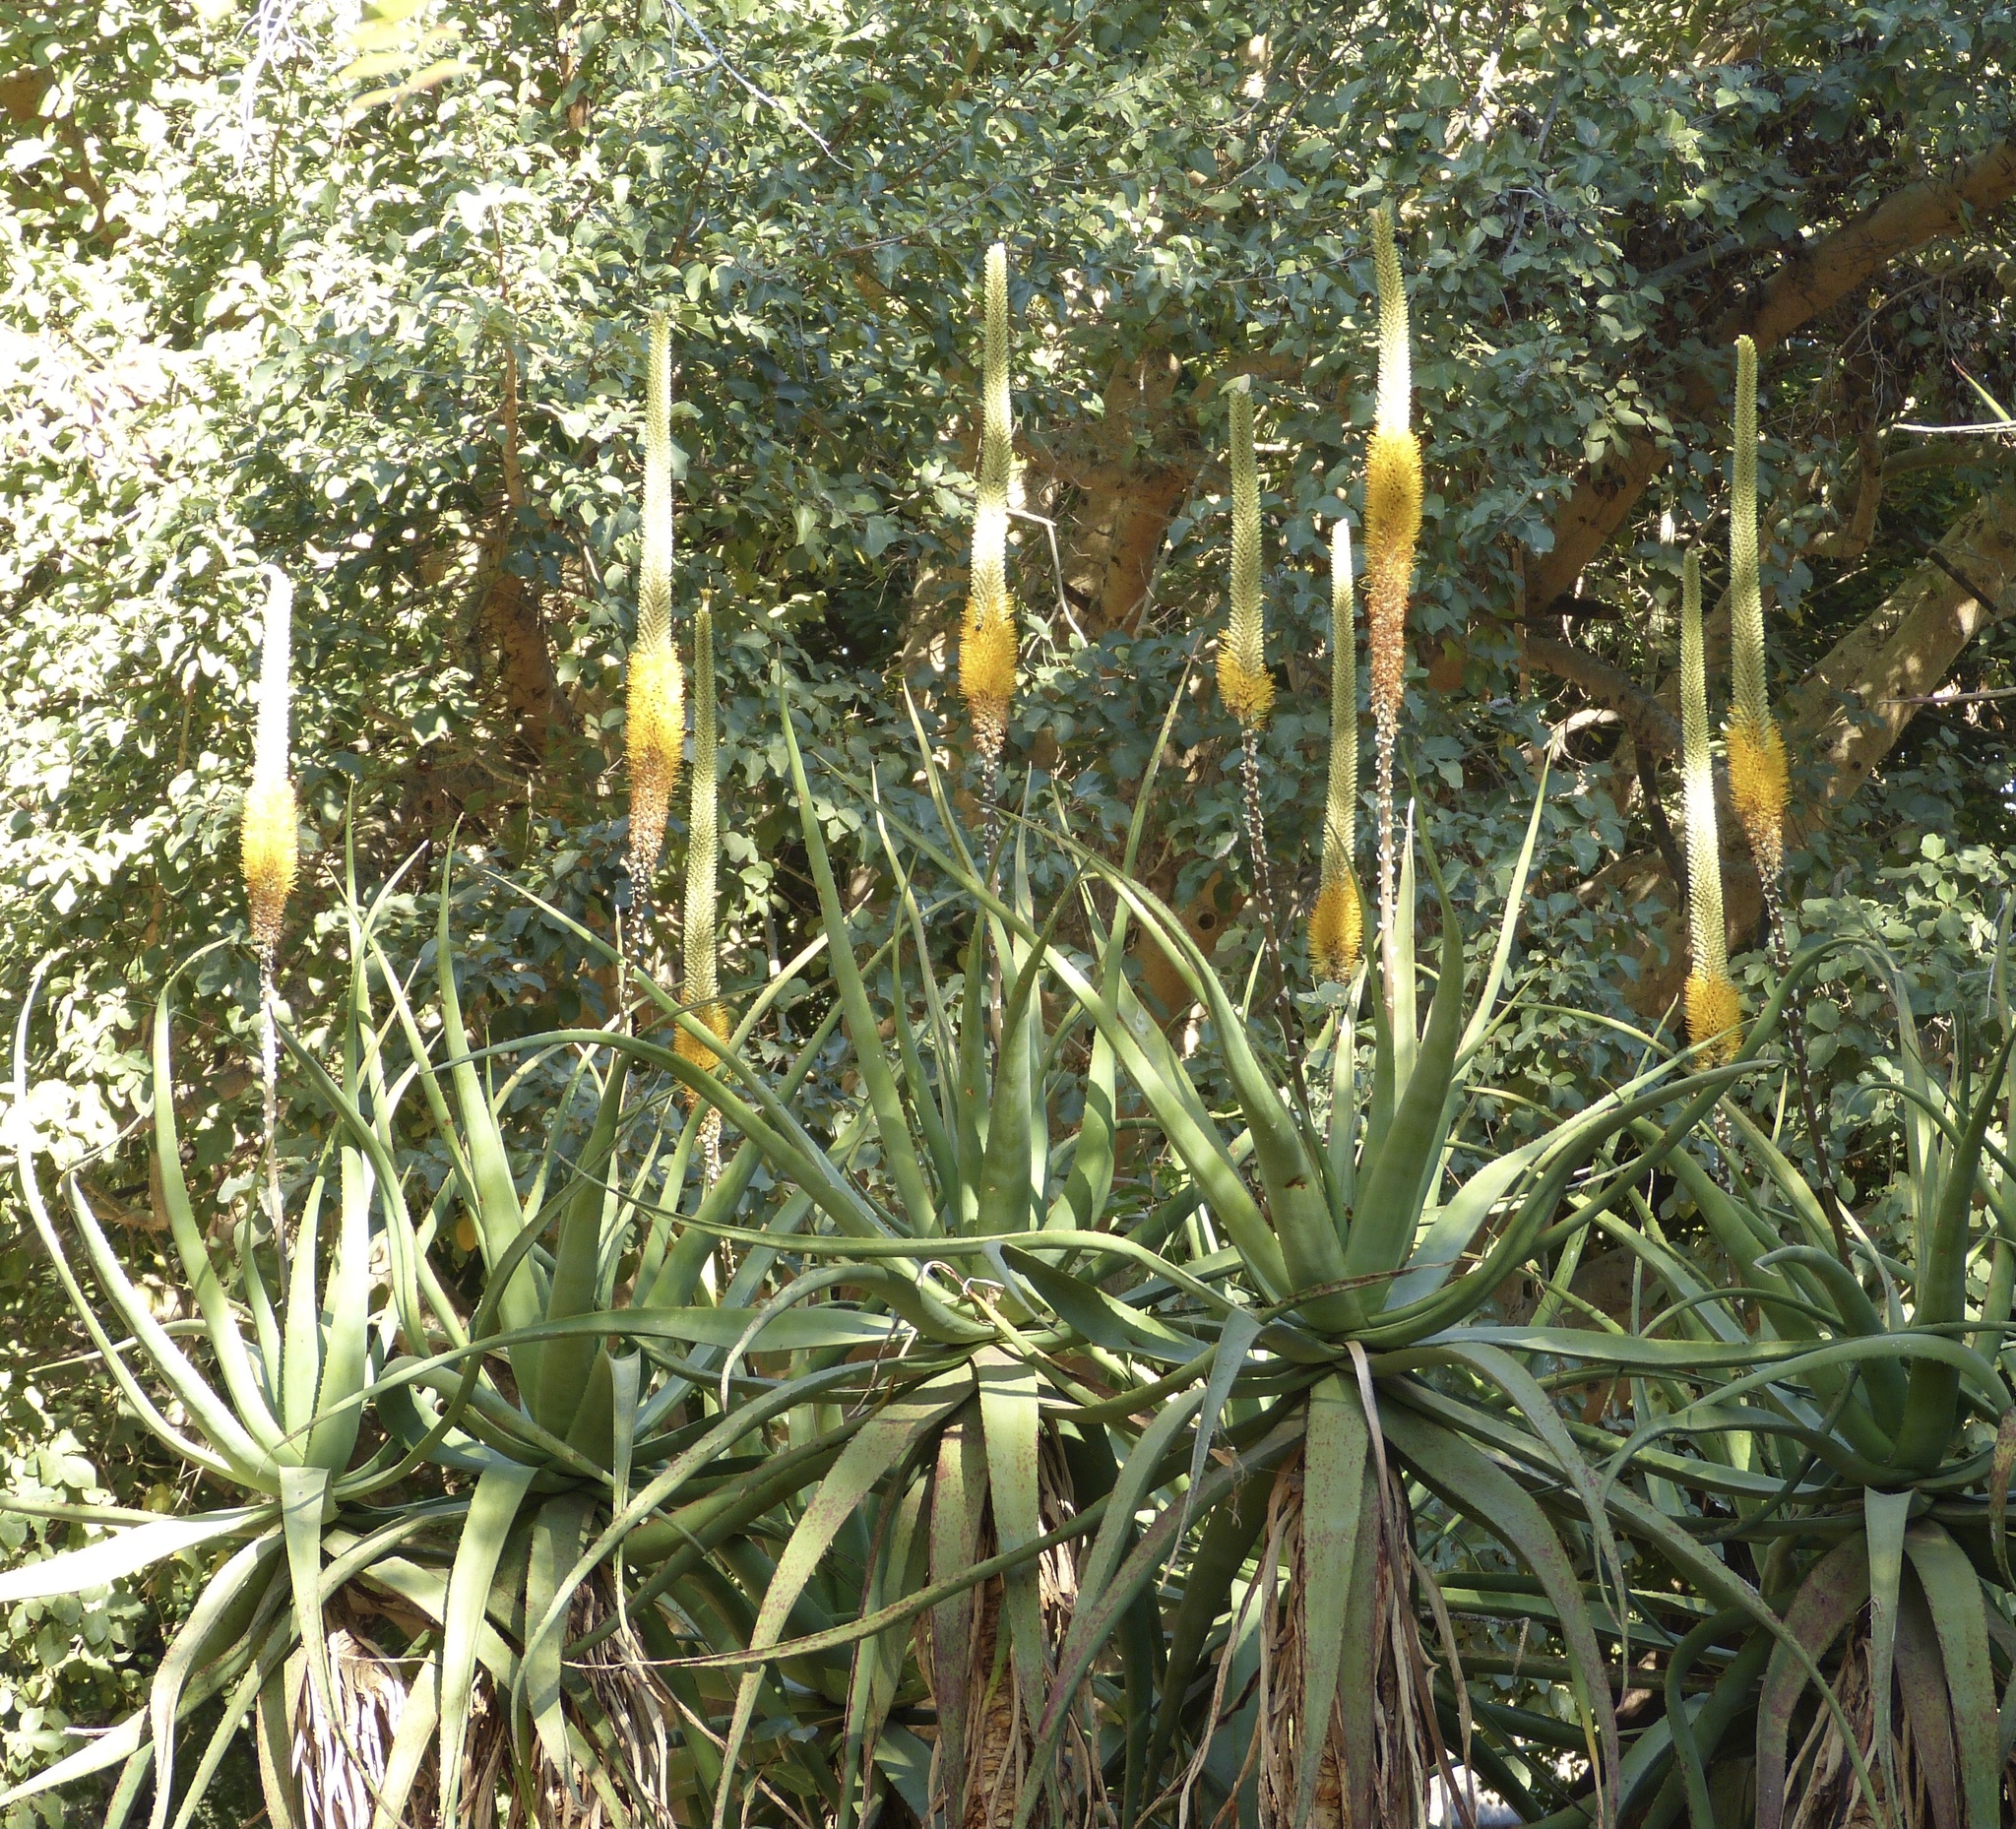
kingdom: Plantae
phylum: Tracheophyta
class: Liliopsida
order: Asparagales
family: Asphodelaceae
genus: Aloe
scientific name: Aloe spicata
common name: Gazaland aloe
